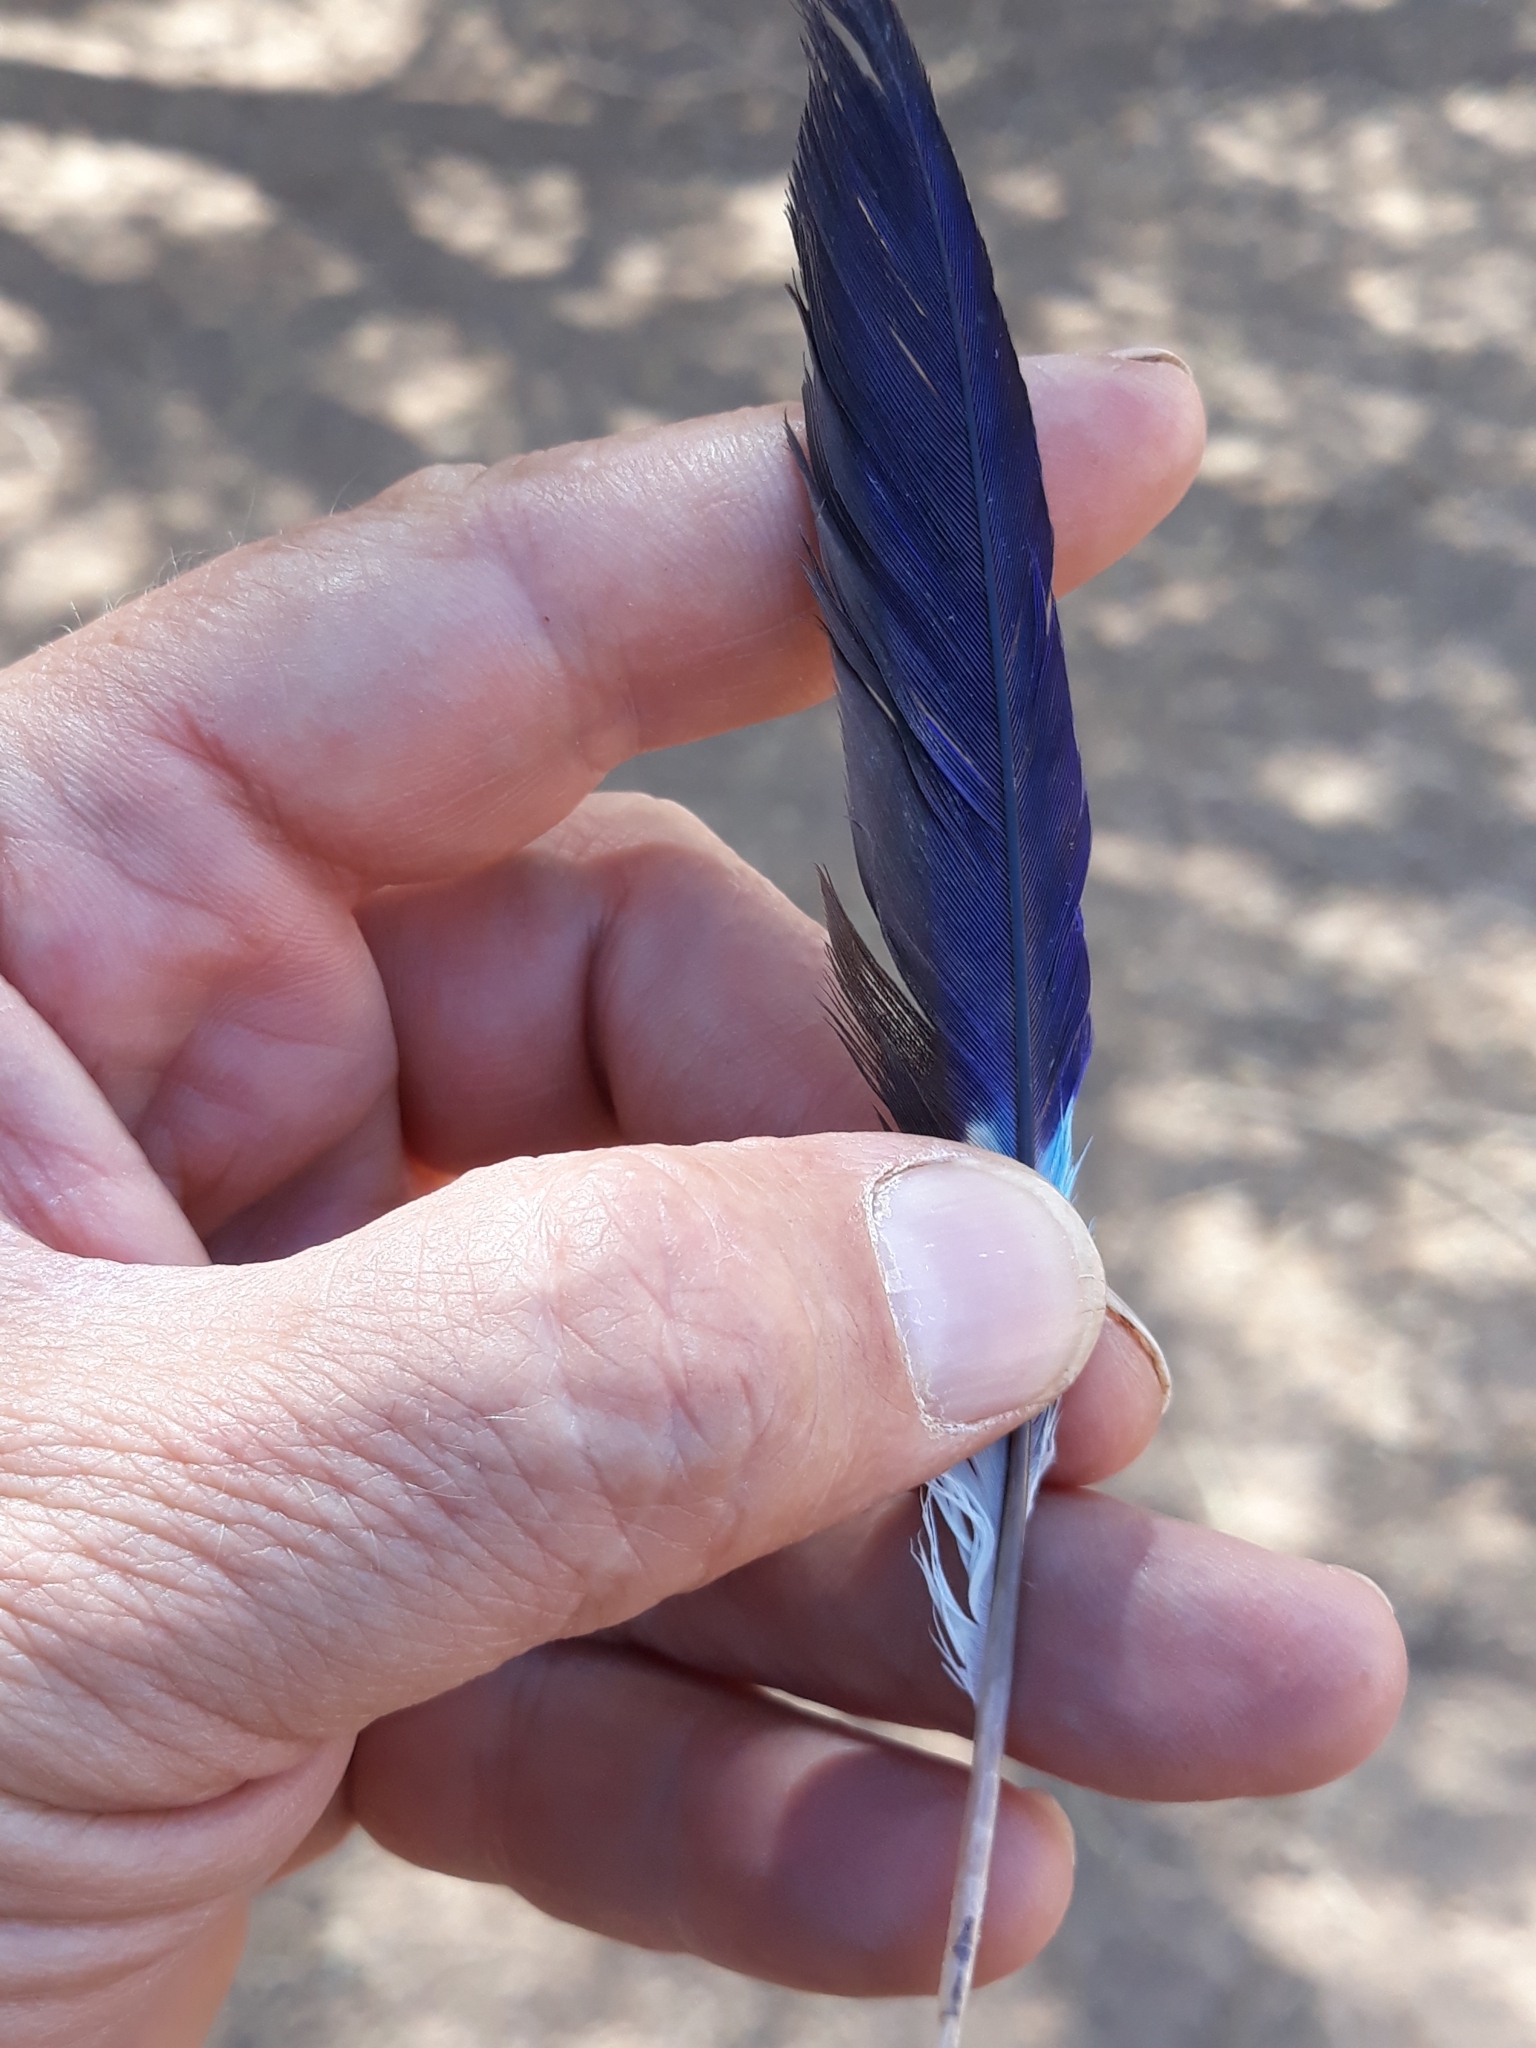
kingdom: Animalia
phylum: Chordata
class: Aves
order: Coraciiformes
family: Coraciidae
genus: Coracias
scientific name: Coracias garrulus
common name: European roller
